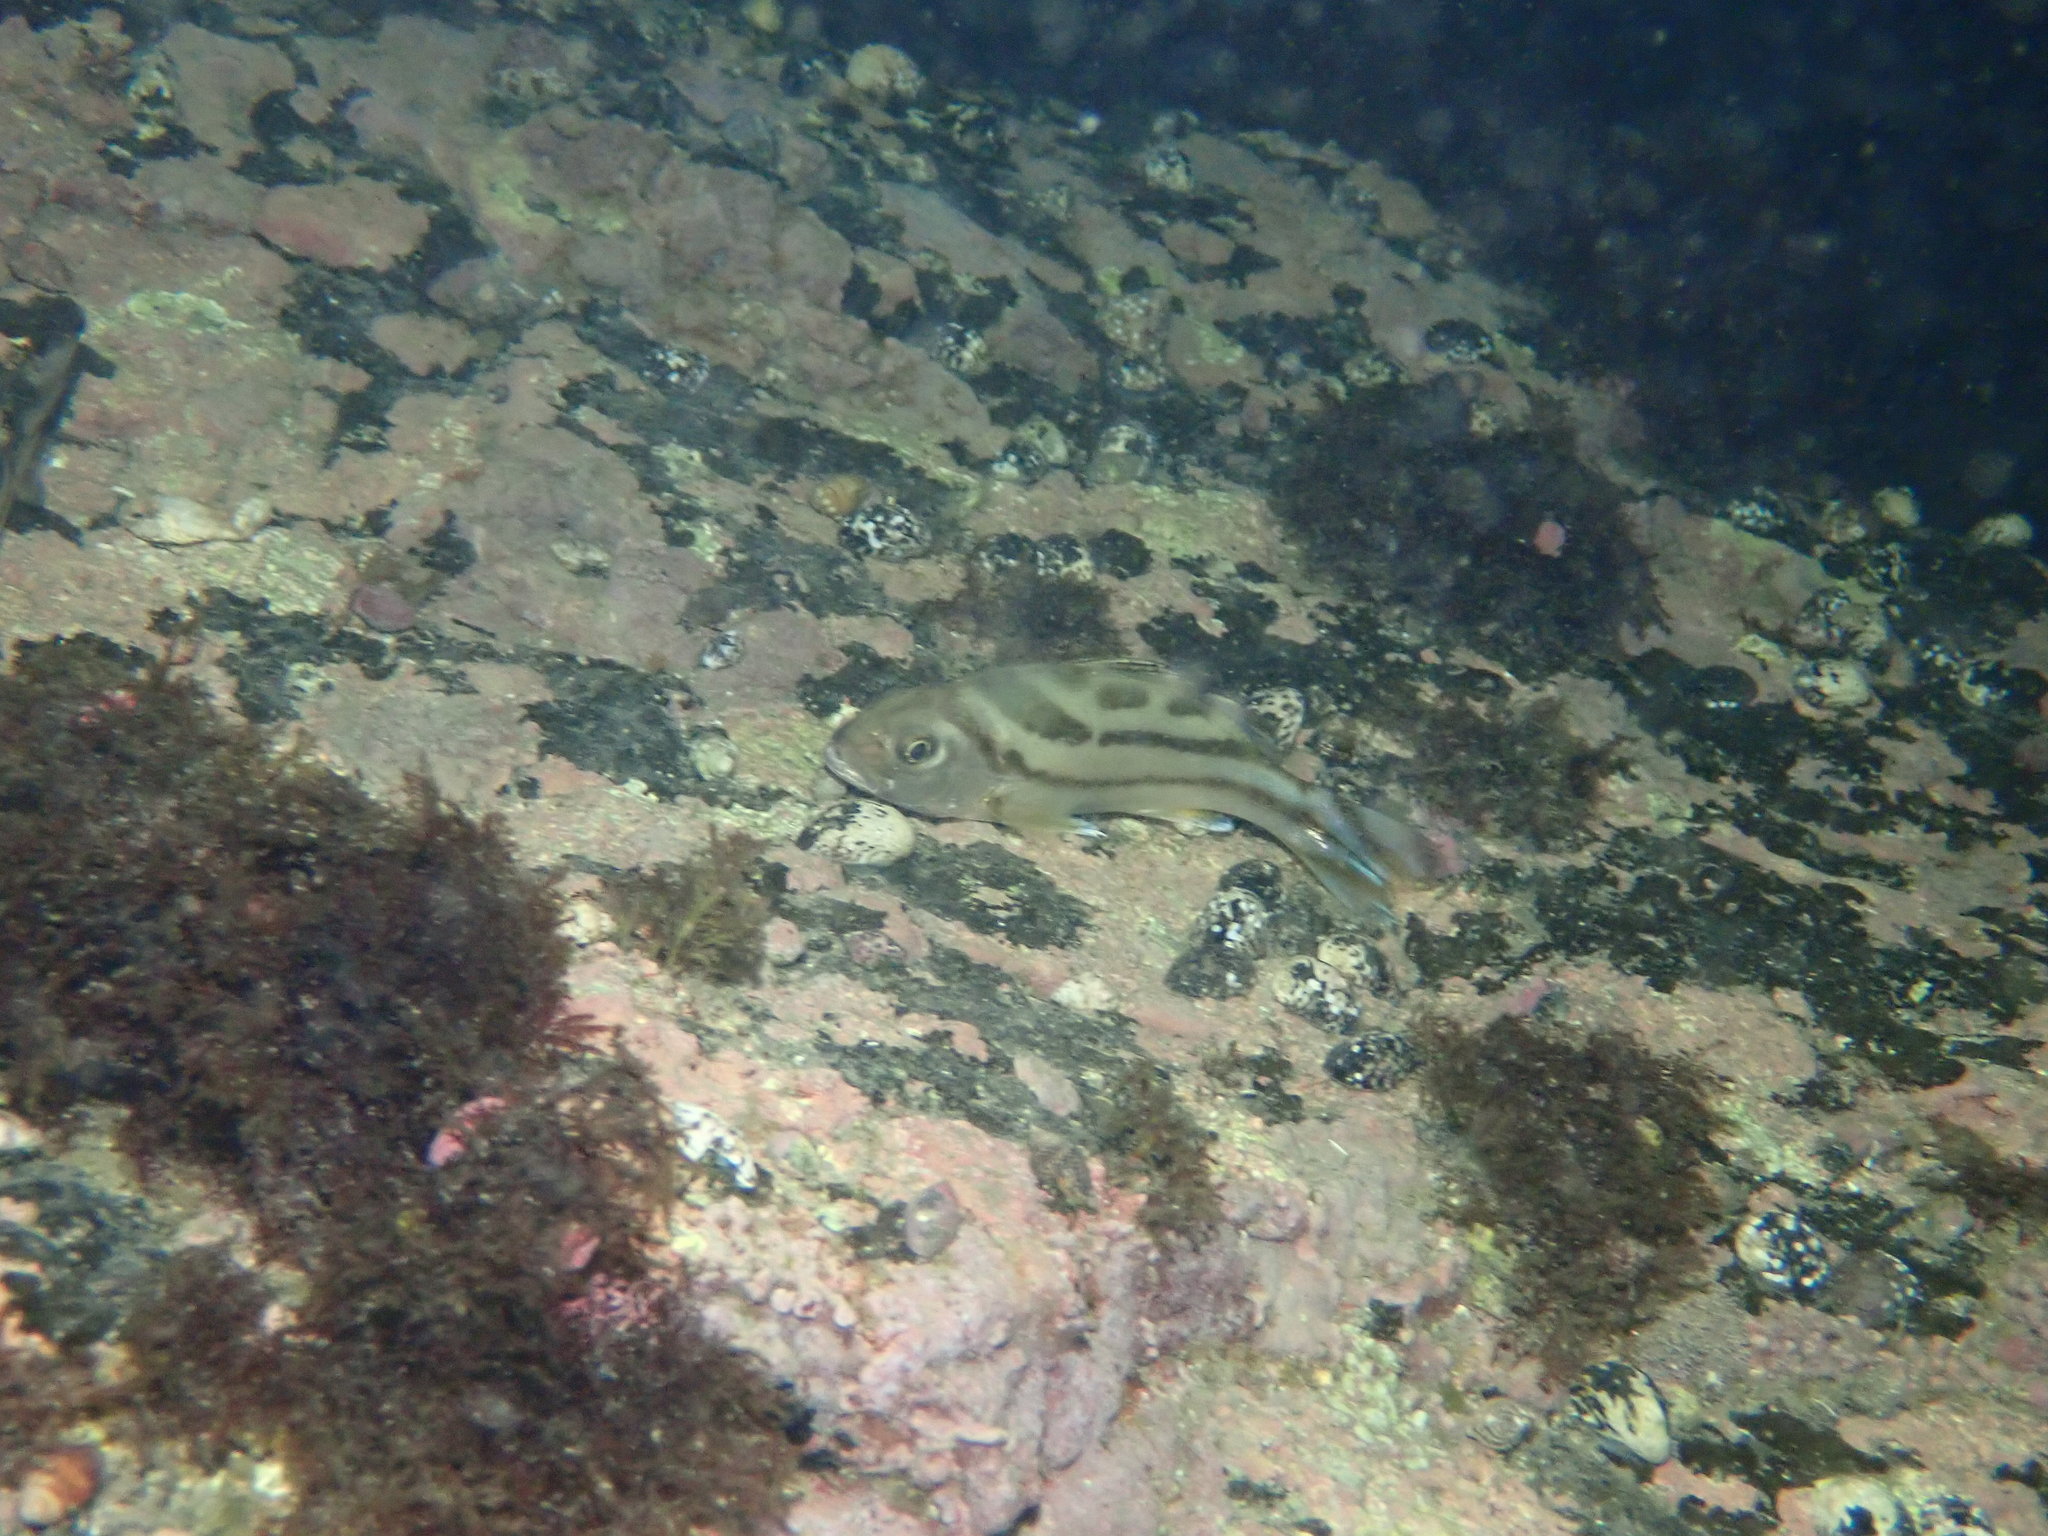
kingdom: Animalia
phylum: Chordata
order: Perciformes
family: Terapontidae
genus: Terapon
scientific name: Terapon jarbua
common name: Jarbua terapon
